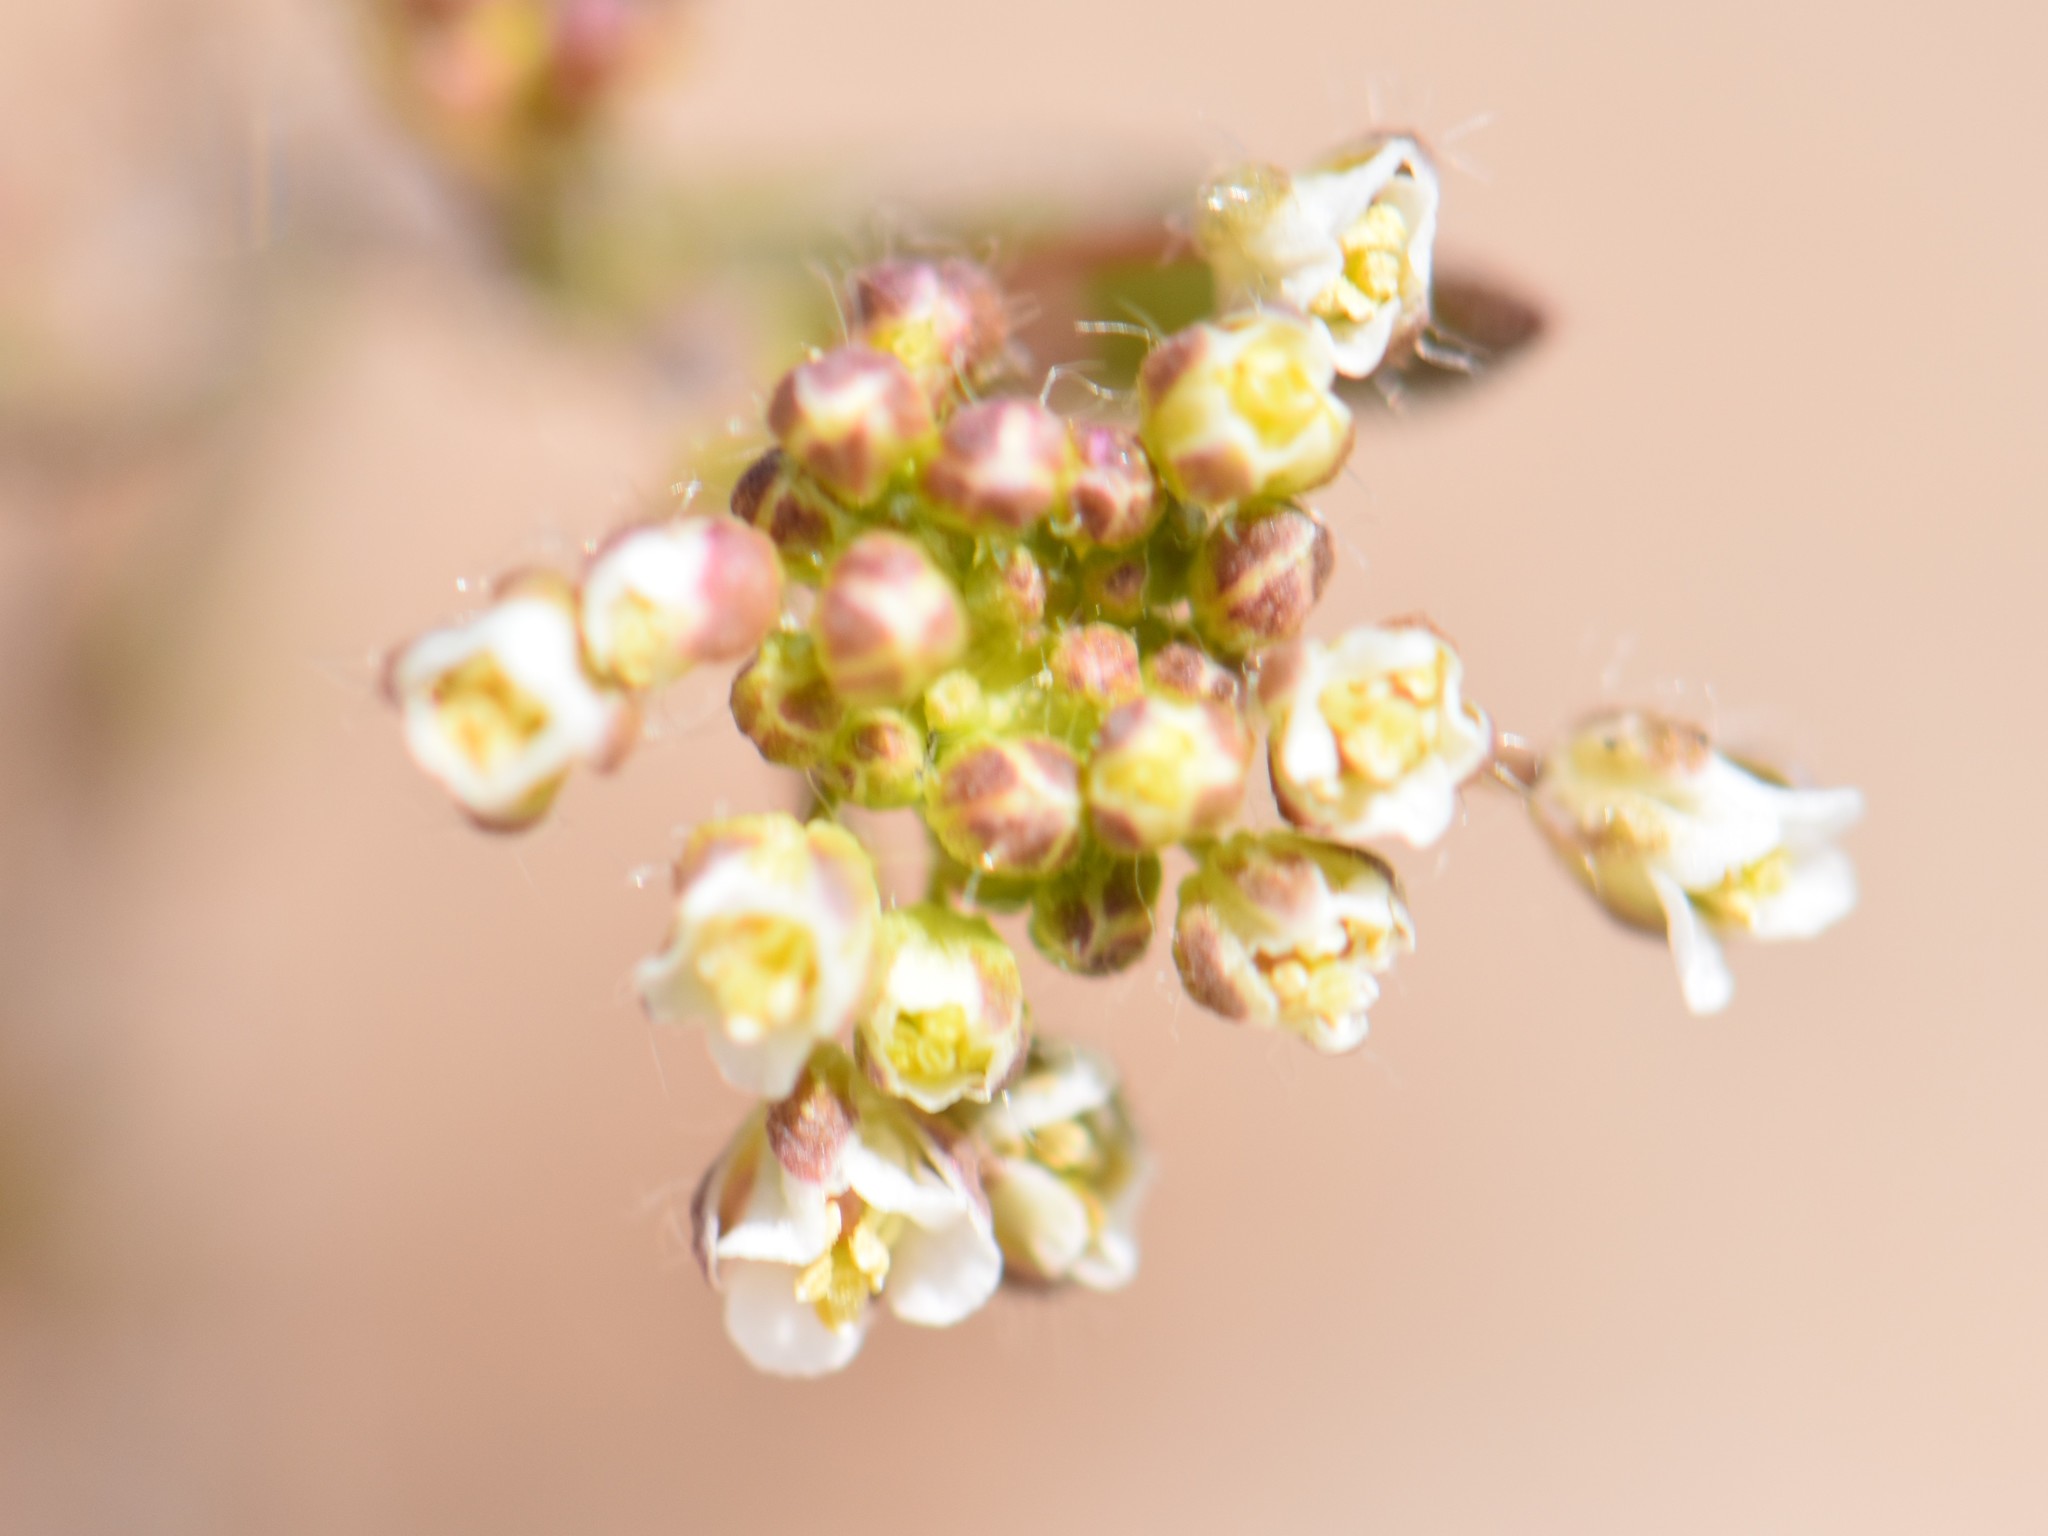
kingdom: Plantae
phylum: Tracheophyta
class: Magnoliopsida
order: Brassicales
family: Brassicaceae
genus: Capsella
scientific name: Capsella bursa-pastoris
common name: Shepherd's purse
